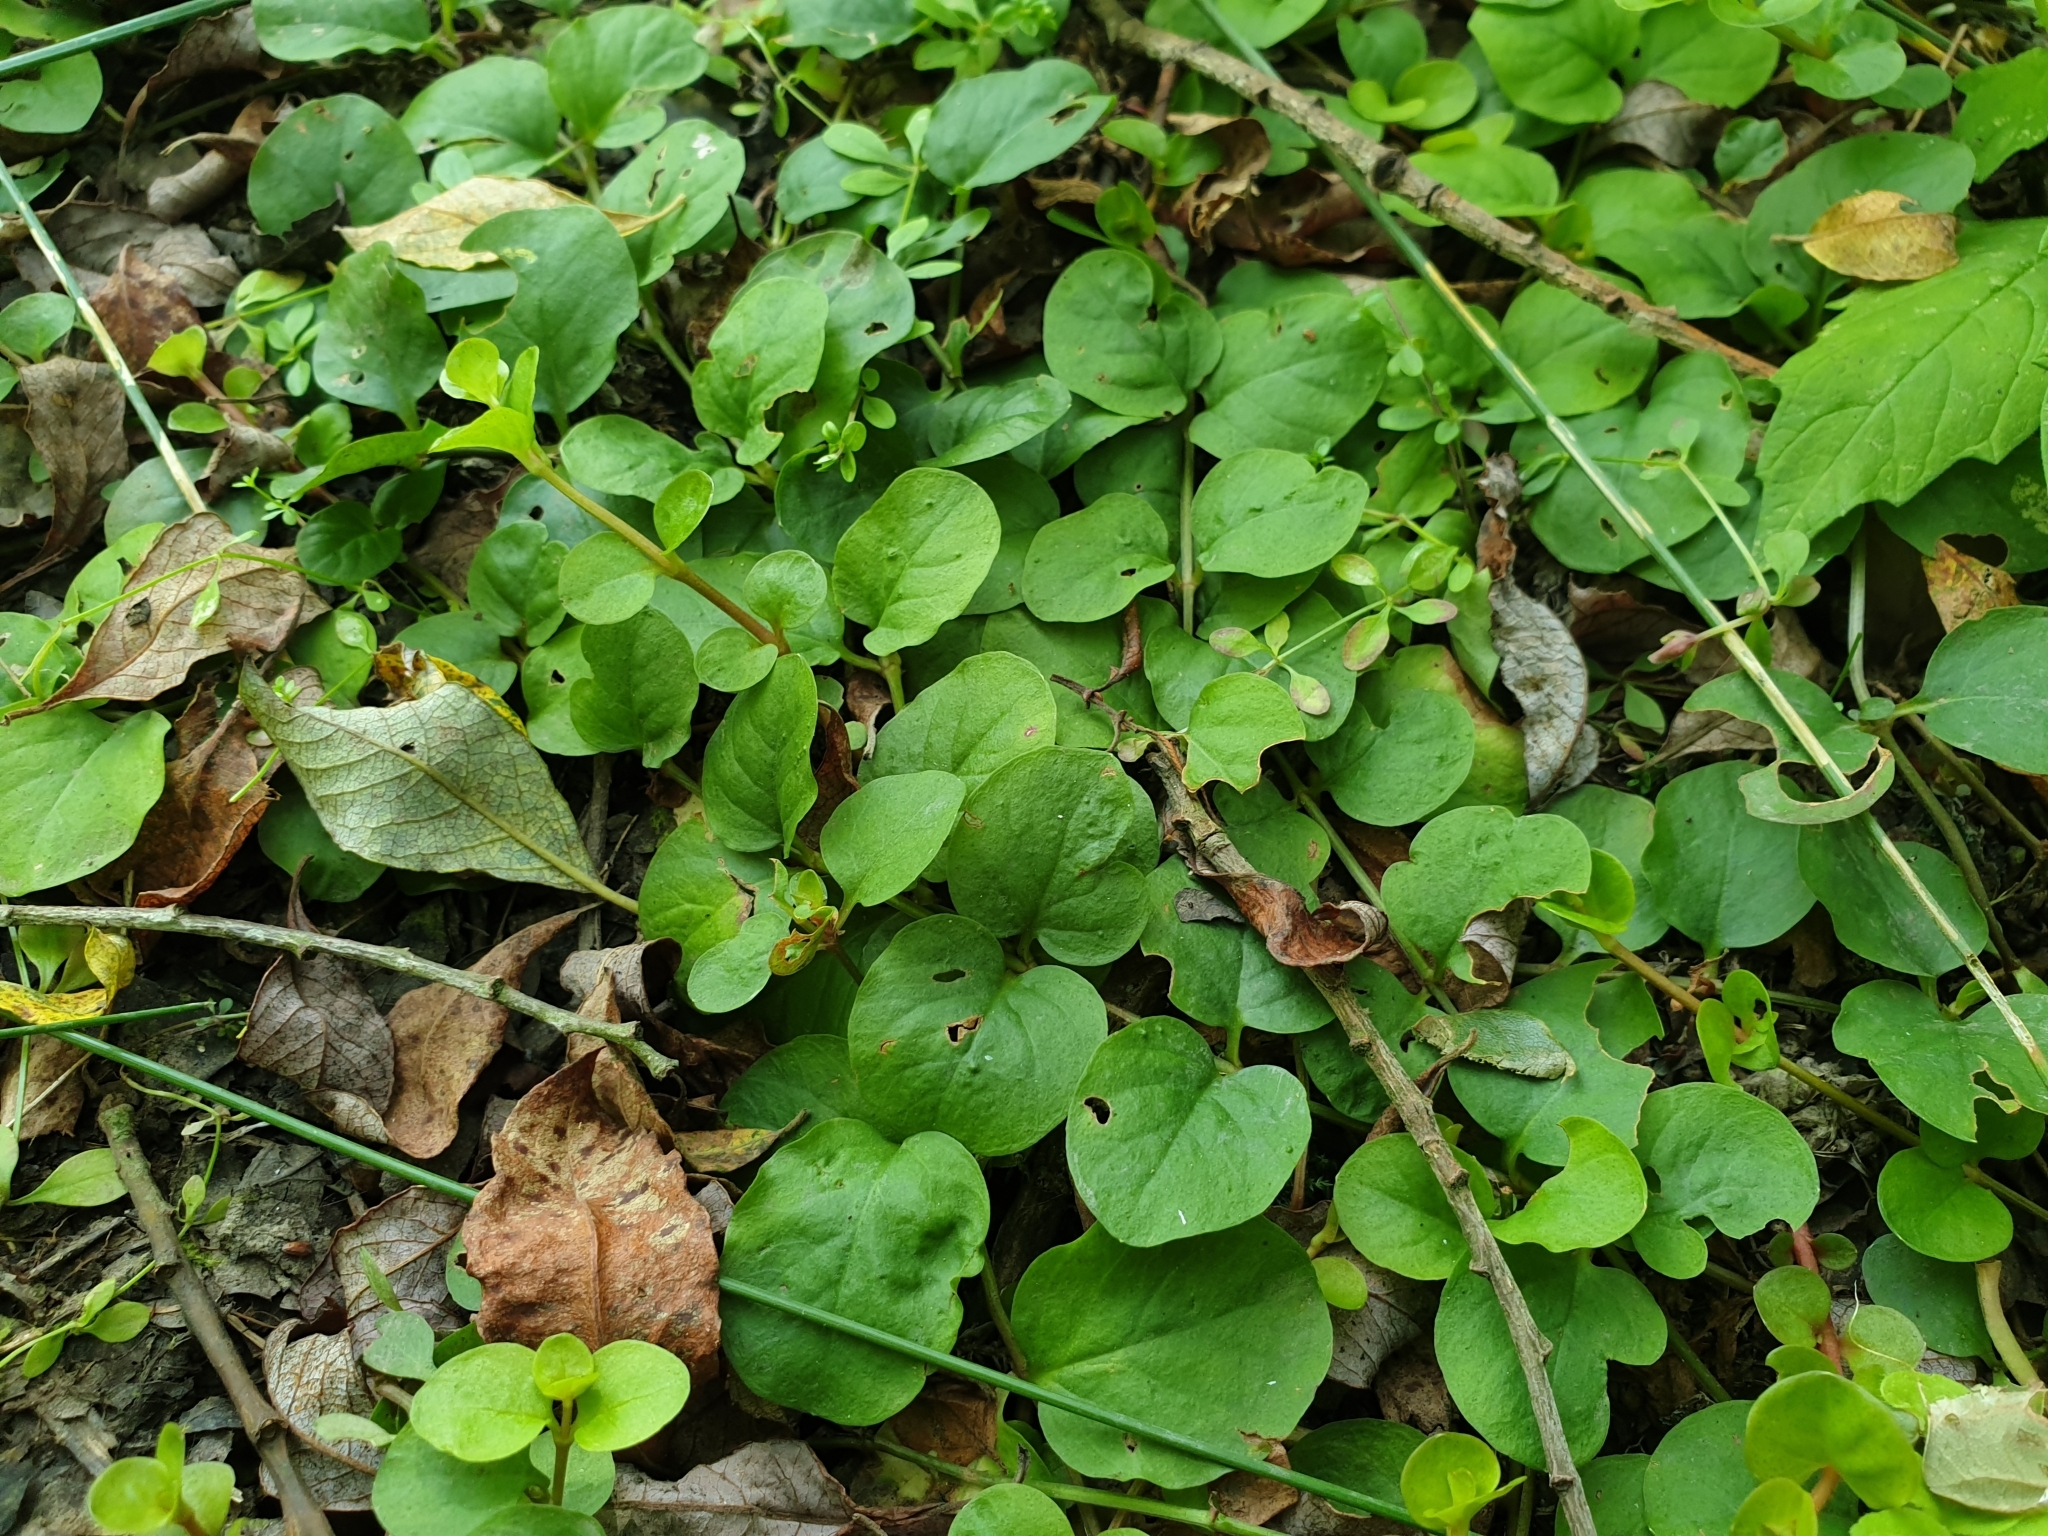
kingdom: Plantae
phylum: Tracheophyta
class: Magnoliopsida
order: Ericales
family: Primulaceae
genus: Lysimachia
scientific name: Lysimachia nummularia
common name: Moneywort
